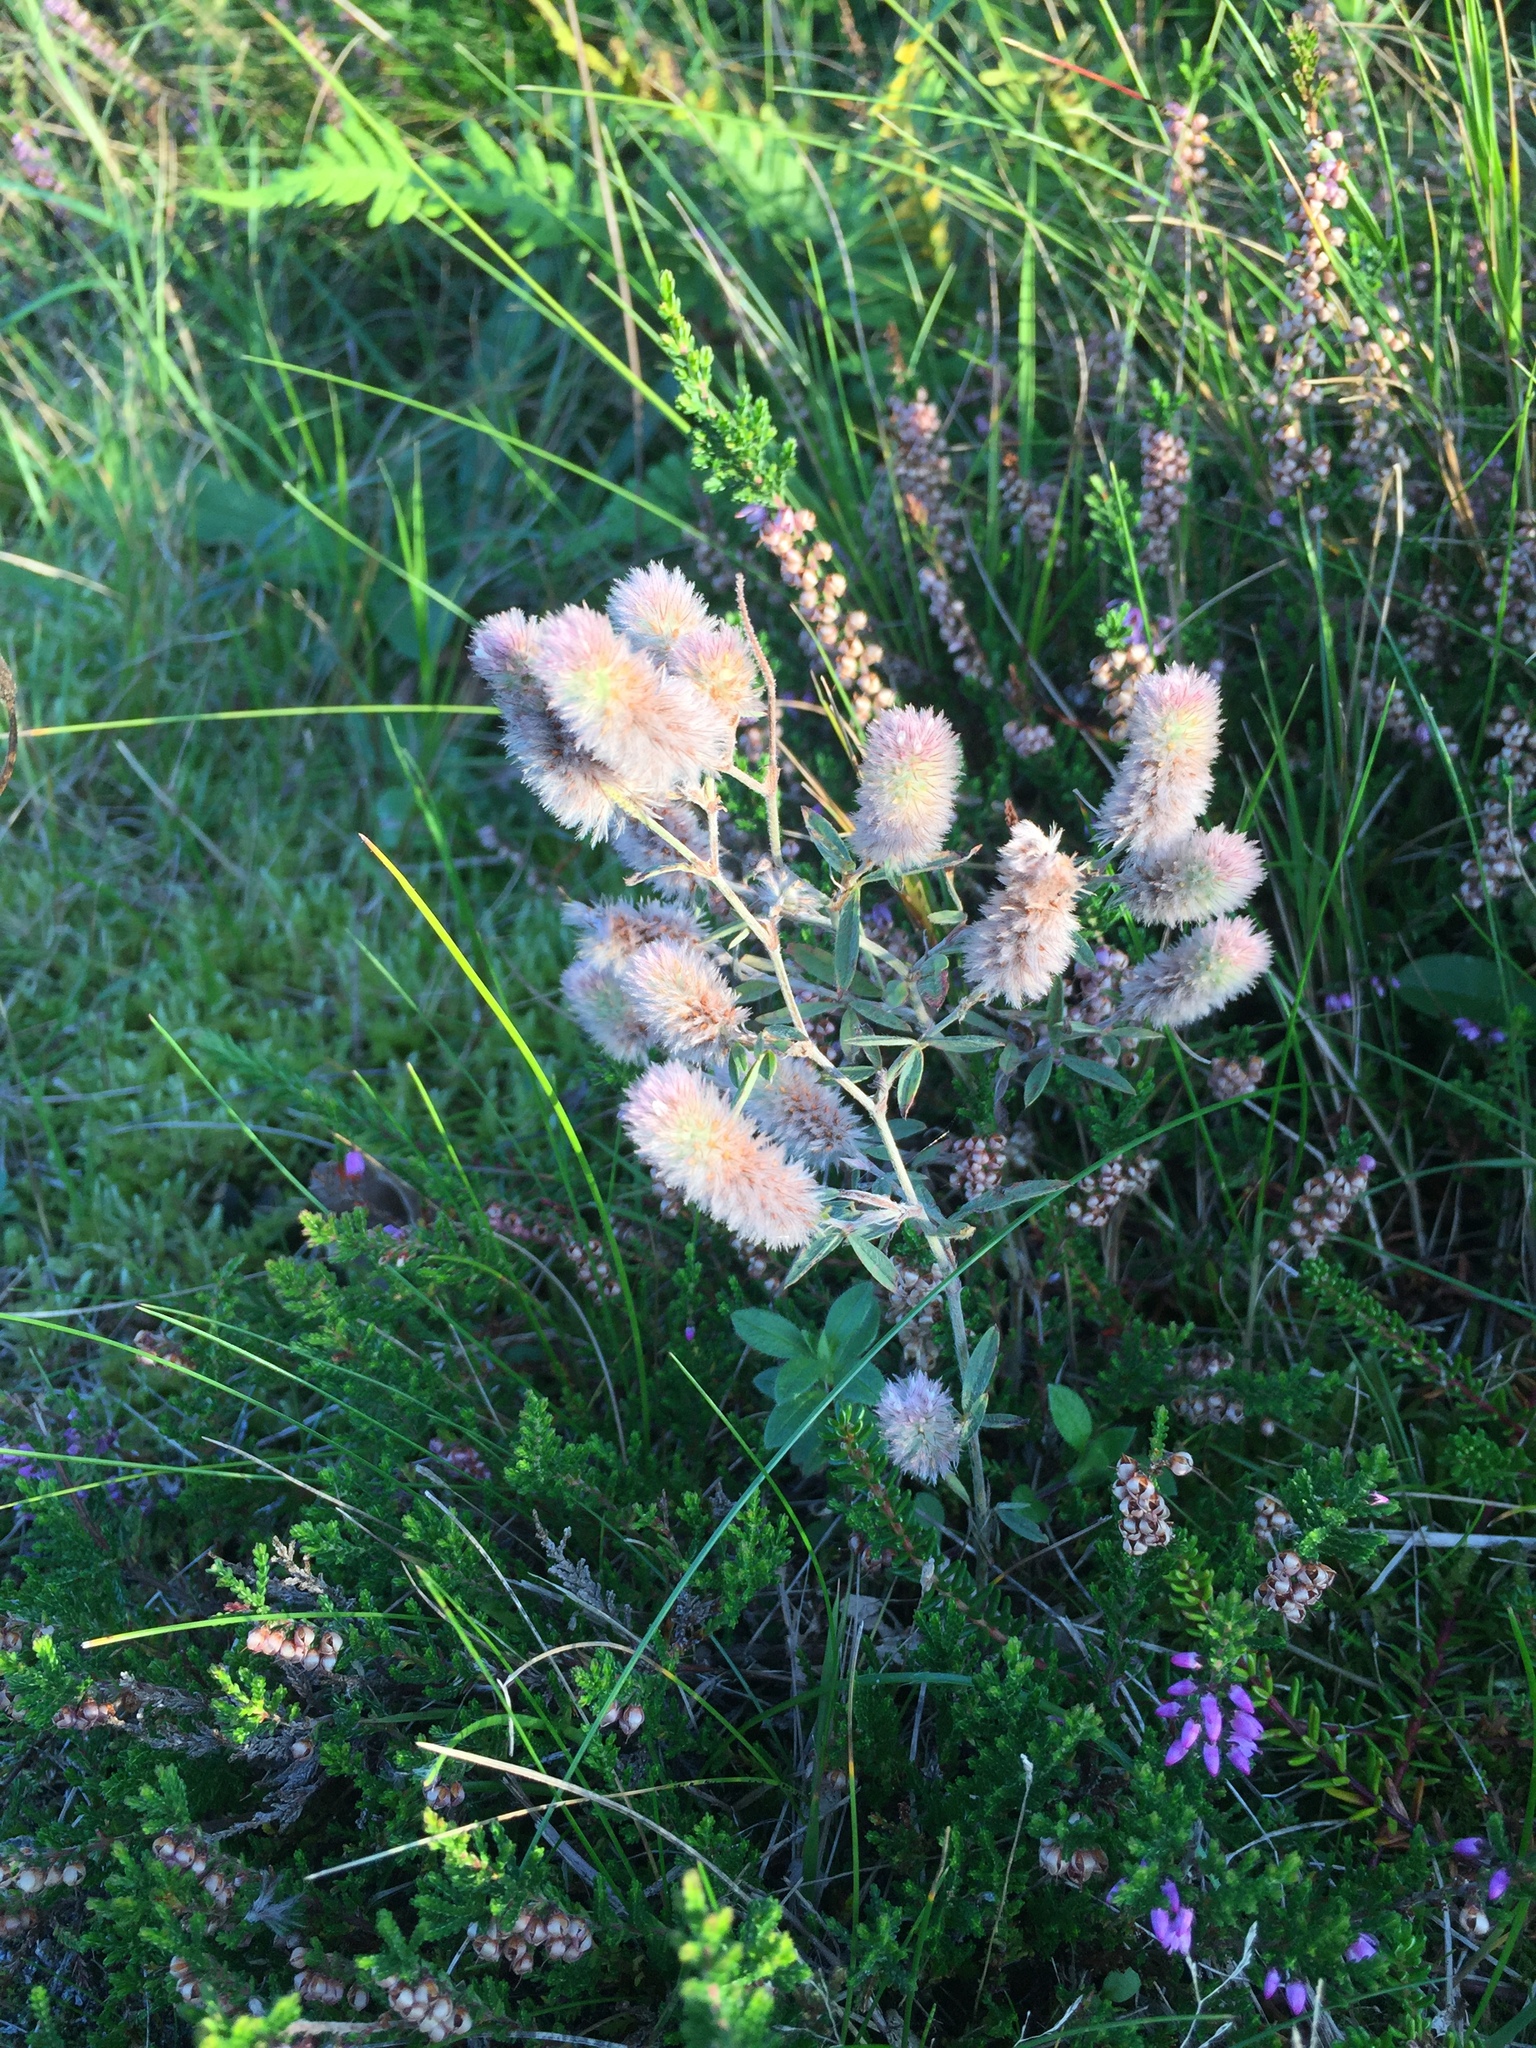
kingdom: Plantae
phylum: Tracheophyta
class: Magnoliopsida
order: Fabales
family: Fabaceae
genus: Trifolium
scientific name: Trifolium arvense
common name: Hare's-foot clover
